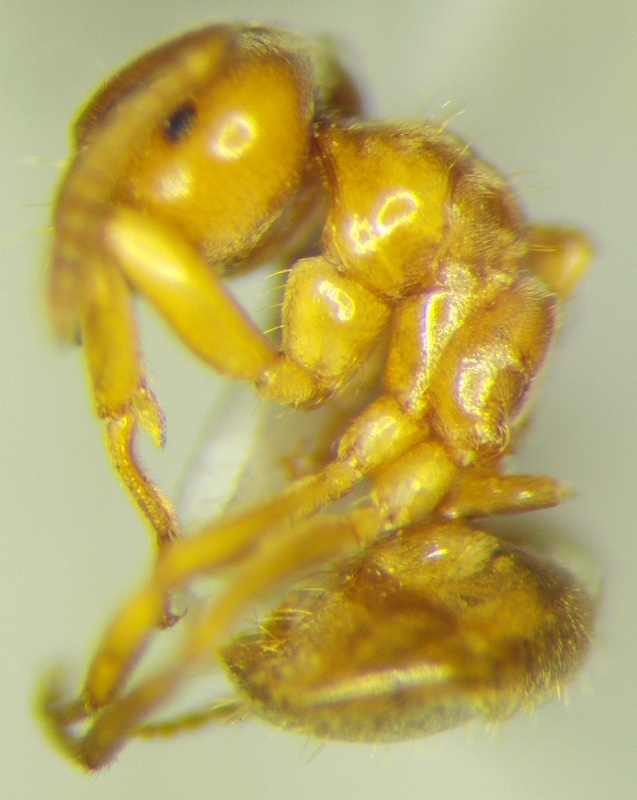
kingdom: Animalia
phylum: Arthropoda
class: Insecta
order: Hymenoptera
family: Formicidae
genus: Lasius
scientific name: Lasius flavus
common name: Blond field ant
